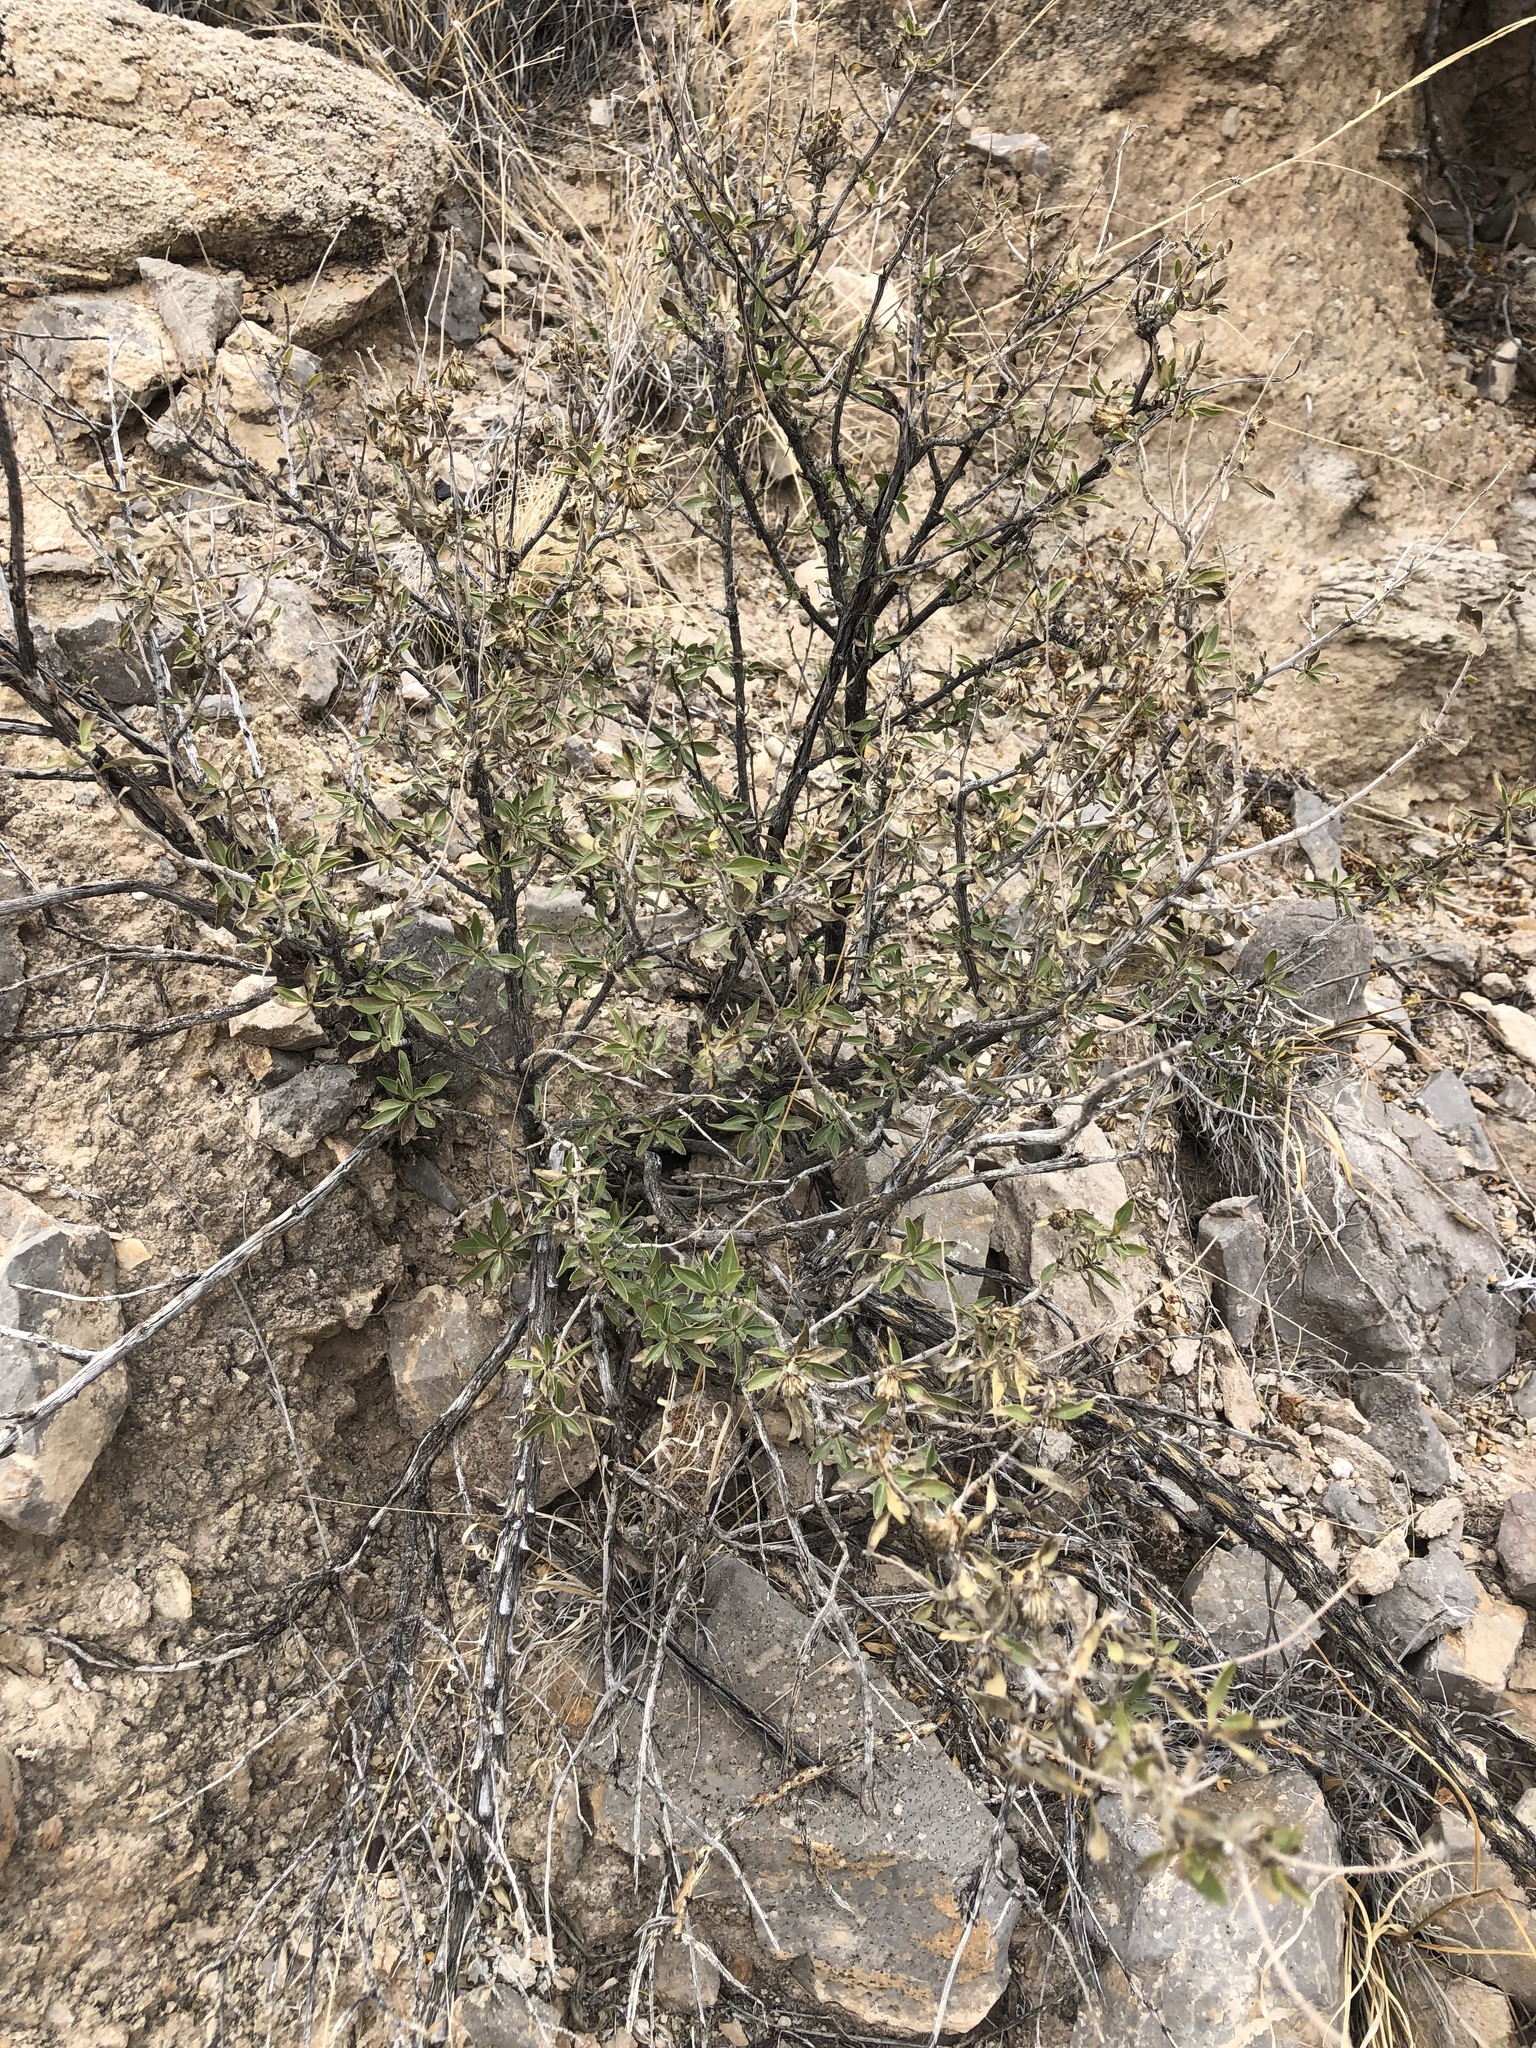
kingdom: Plantae
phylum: Tracheophyta
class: Magnoliopsida
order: Asterales
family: Asteraceae
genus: Flourensia
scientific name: Flourensia cernua
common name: Varnishbush
